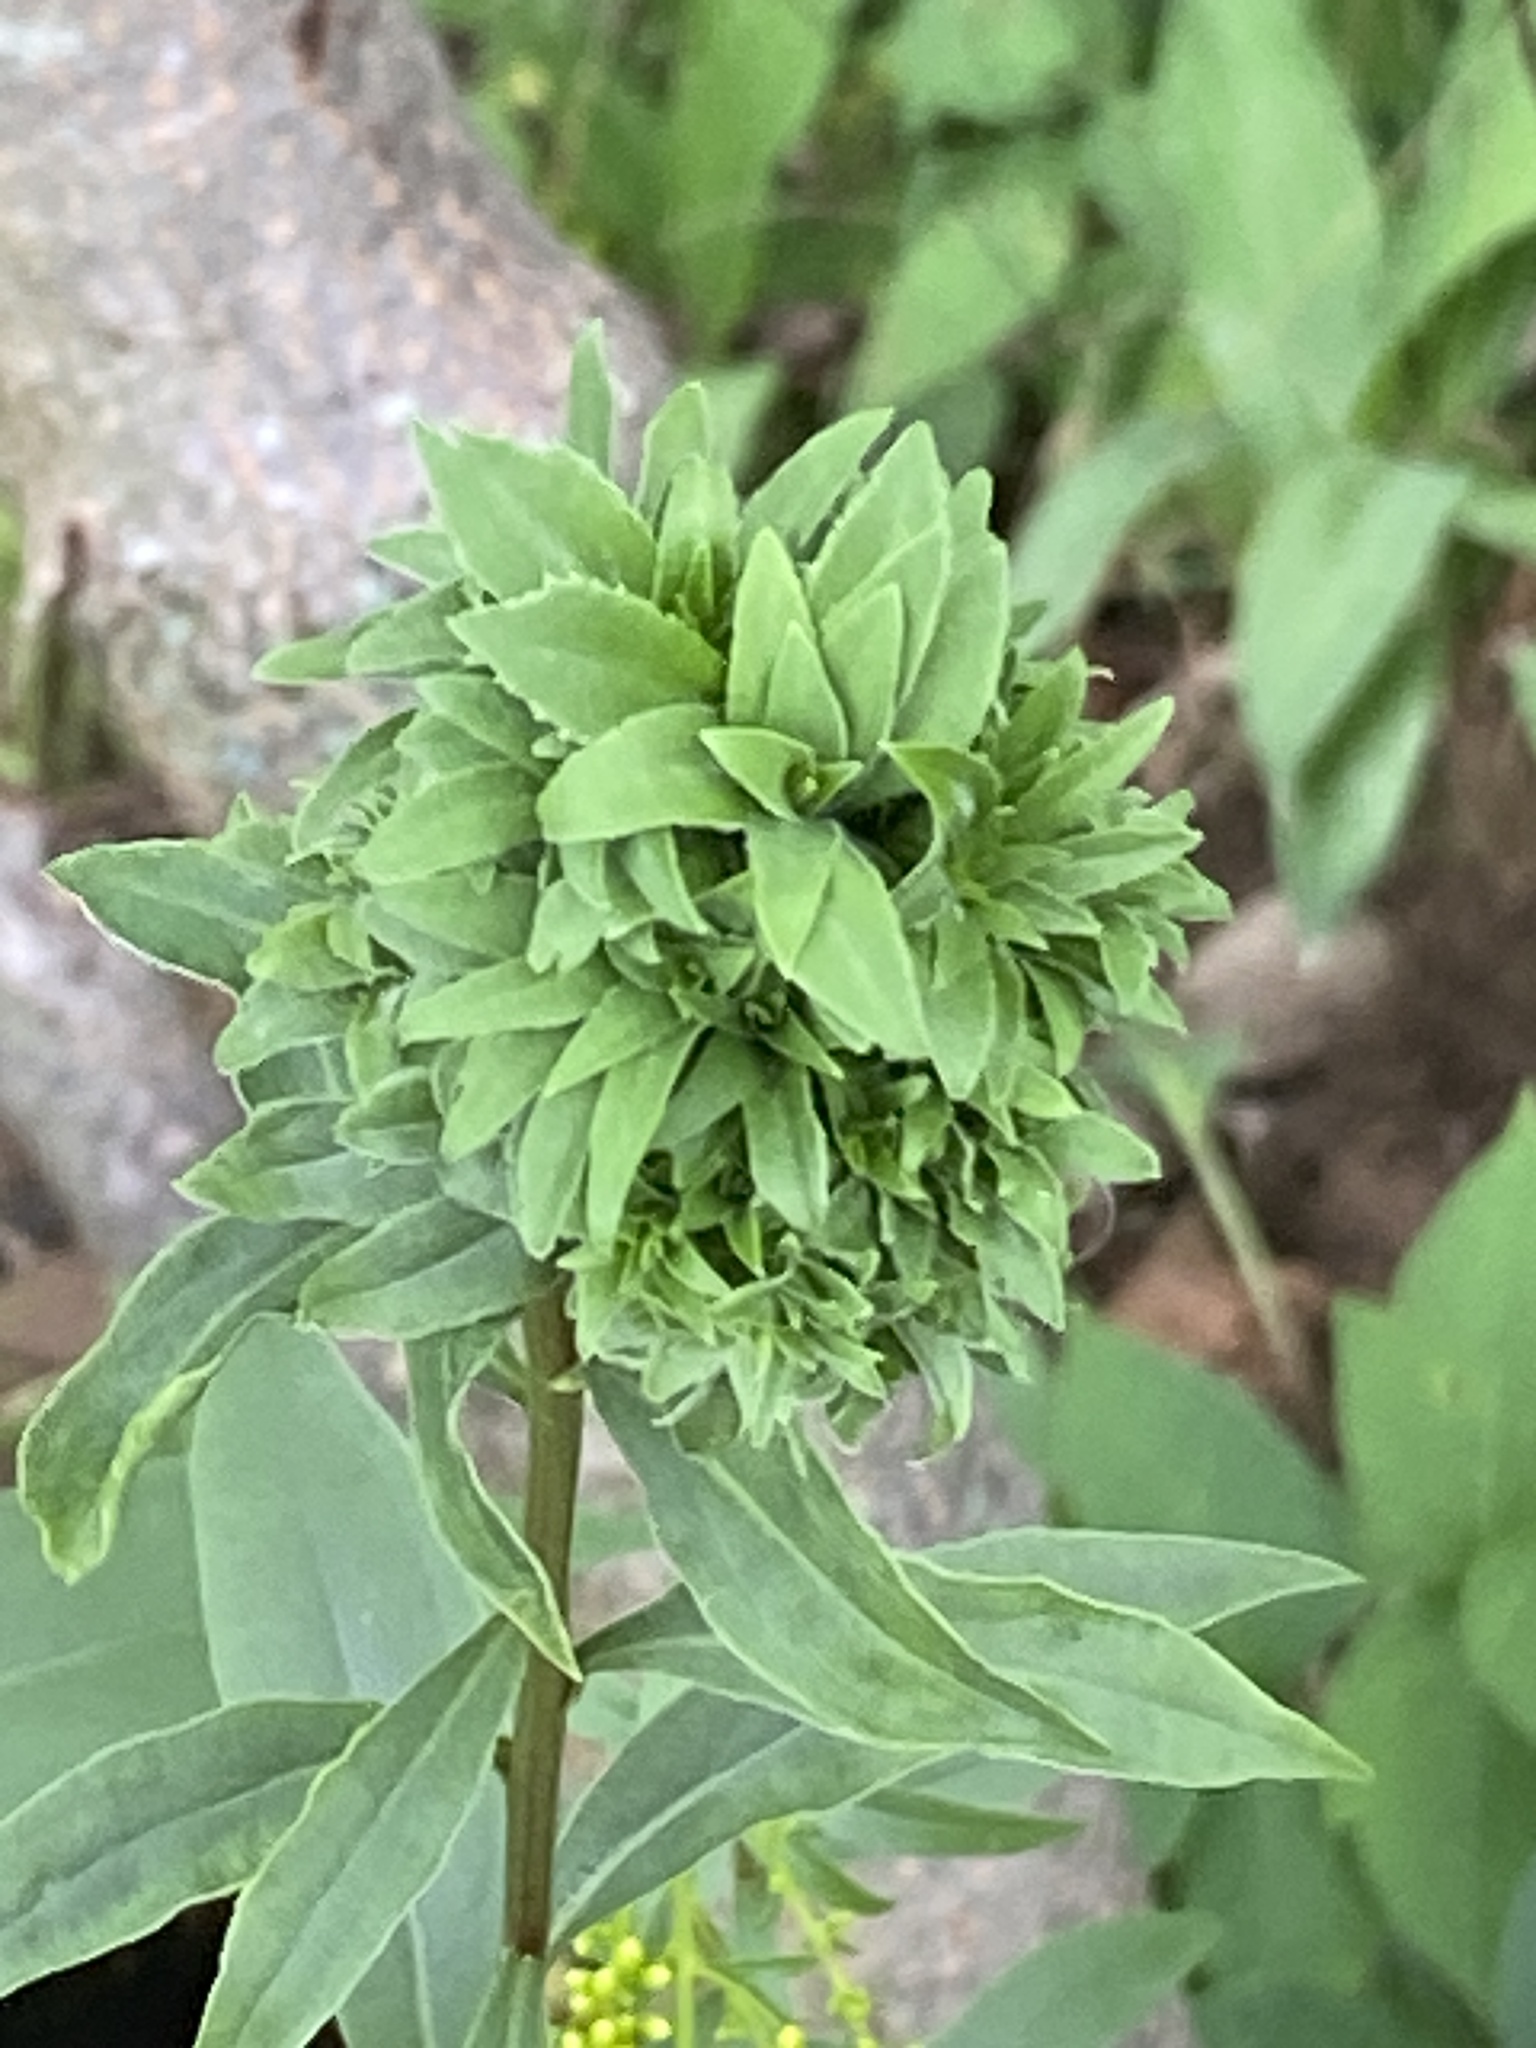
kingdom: Animalia
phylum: Arthropoda
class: Insecta
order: Diptera
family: Cecidomyiidae
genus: Asphondylia
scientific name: Asphondylia monacha
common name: Nun midge
